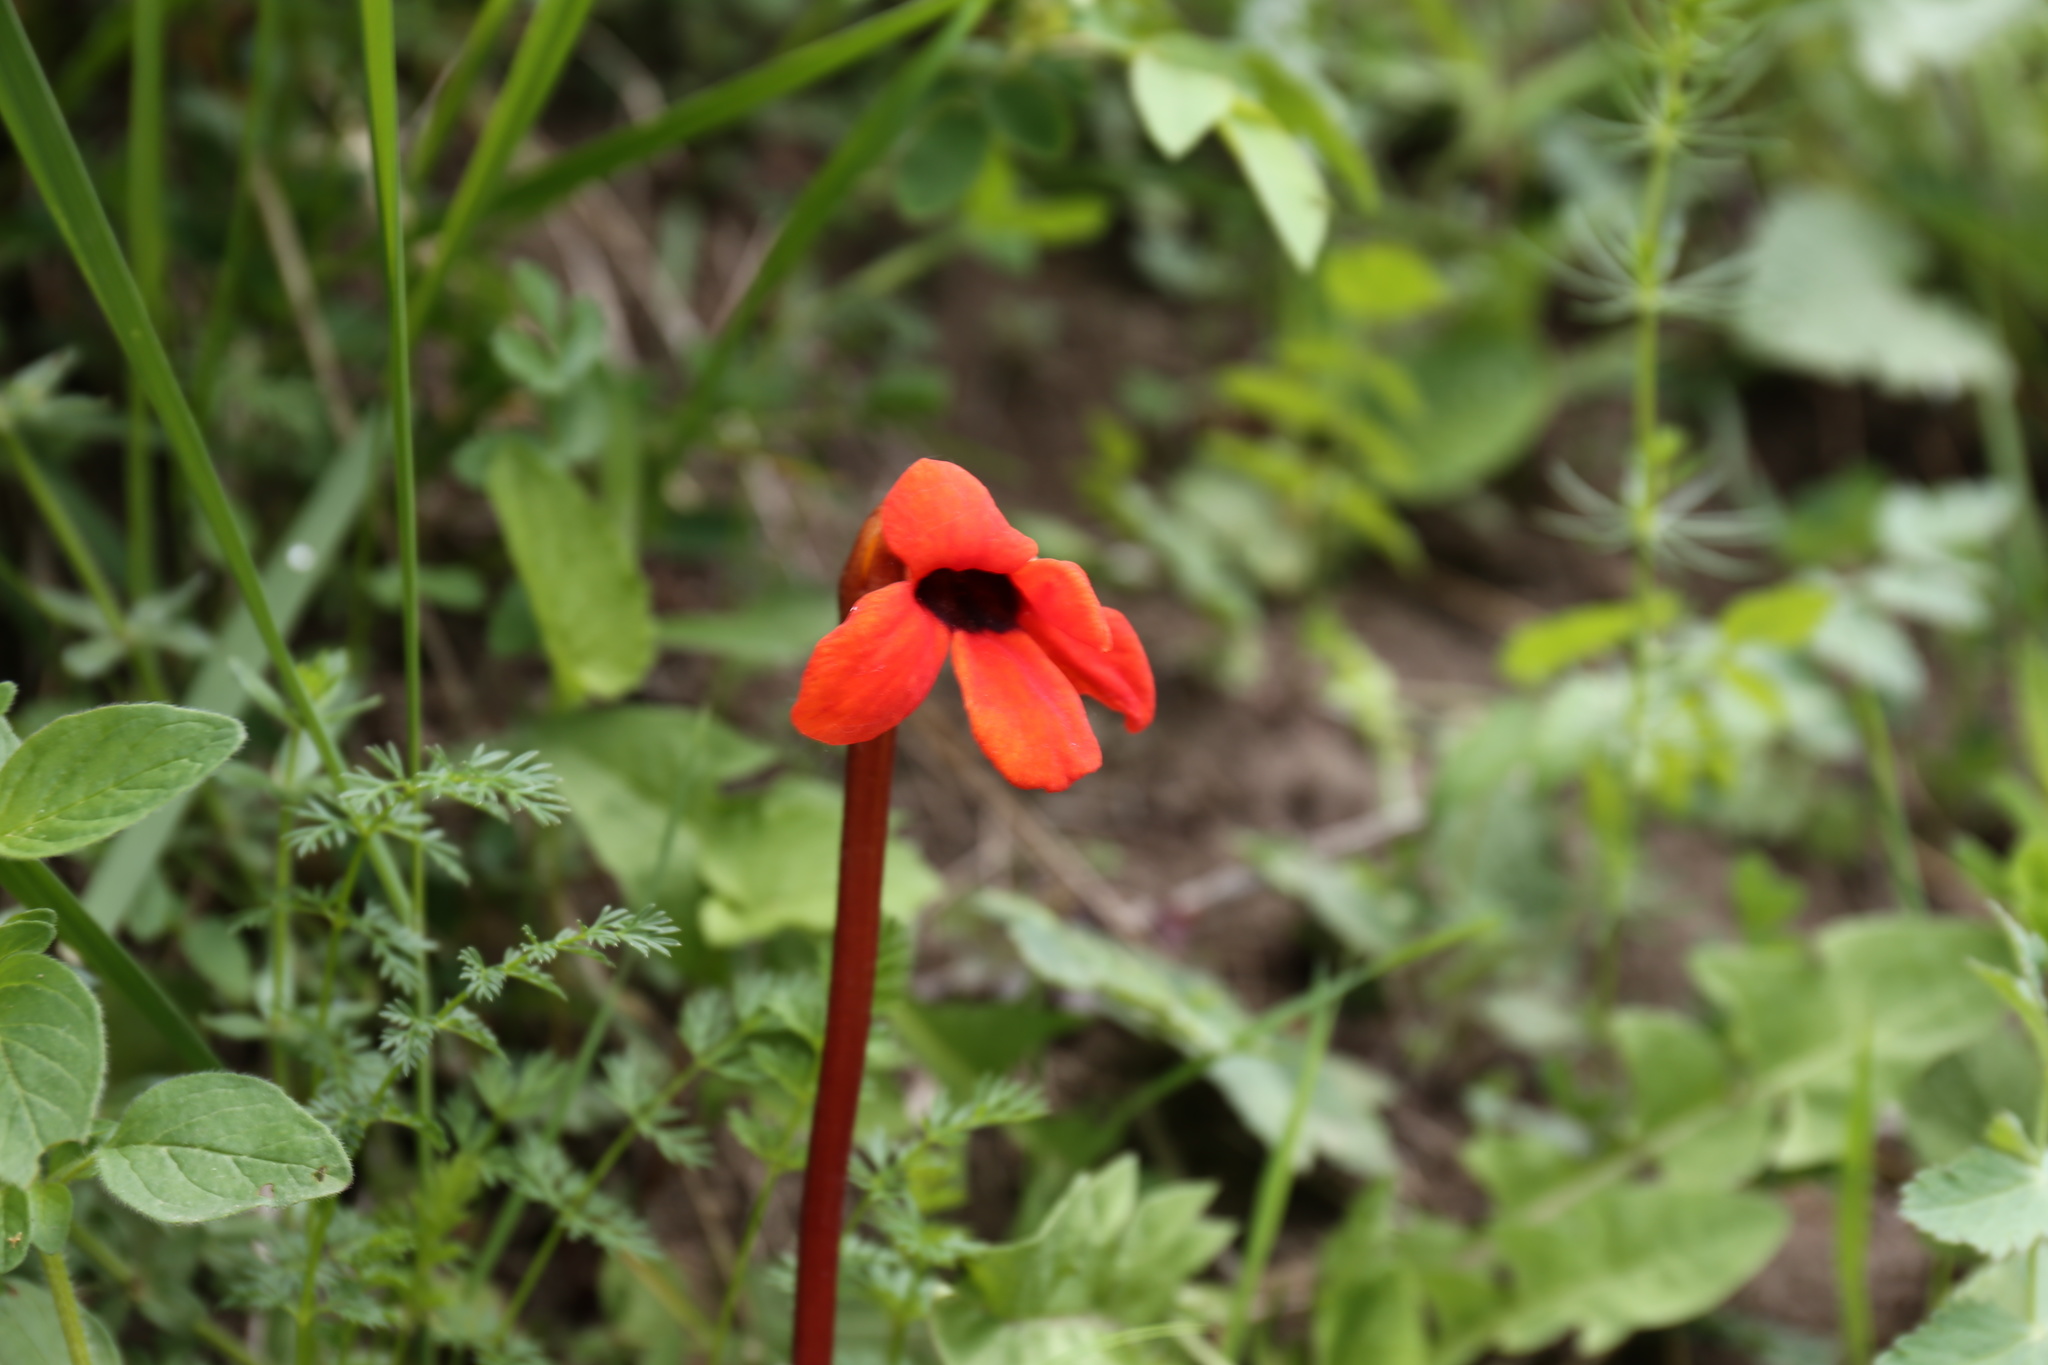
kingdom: Plantae
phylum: Tracheophyta
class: Magnoliopsida
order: Lamiales
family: Orobanchaceae
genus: Diphelypaea
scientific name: Diphelypaea coccinea
